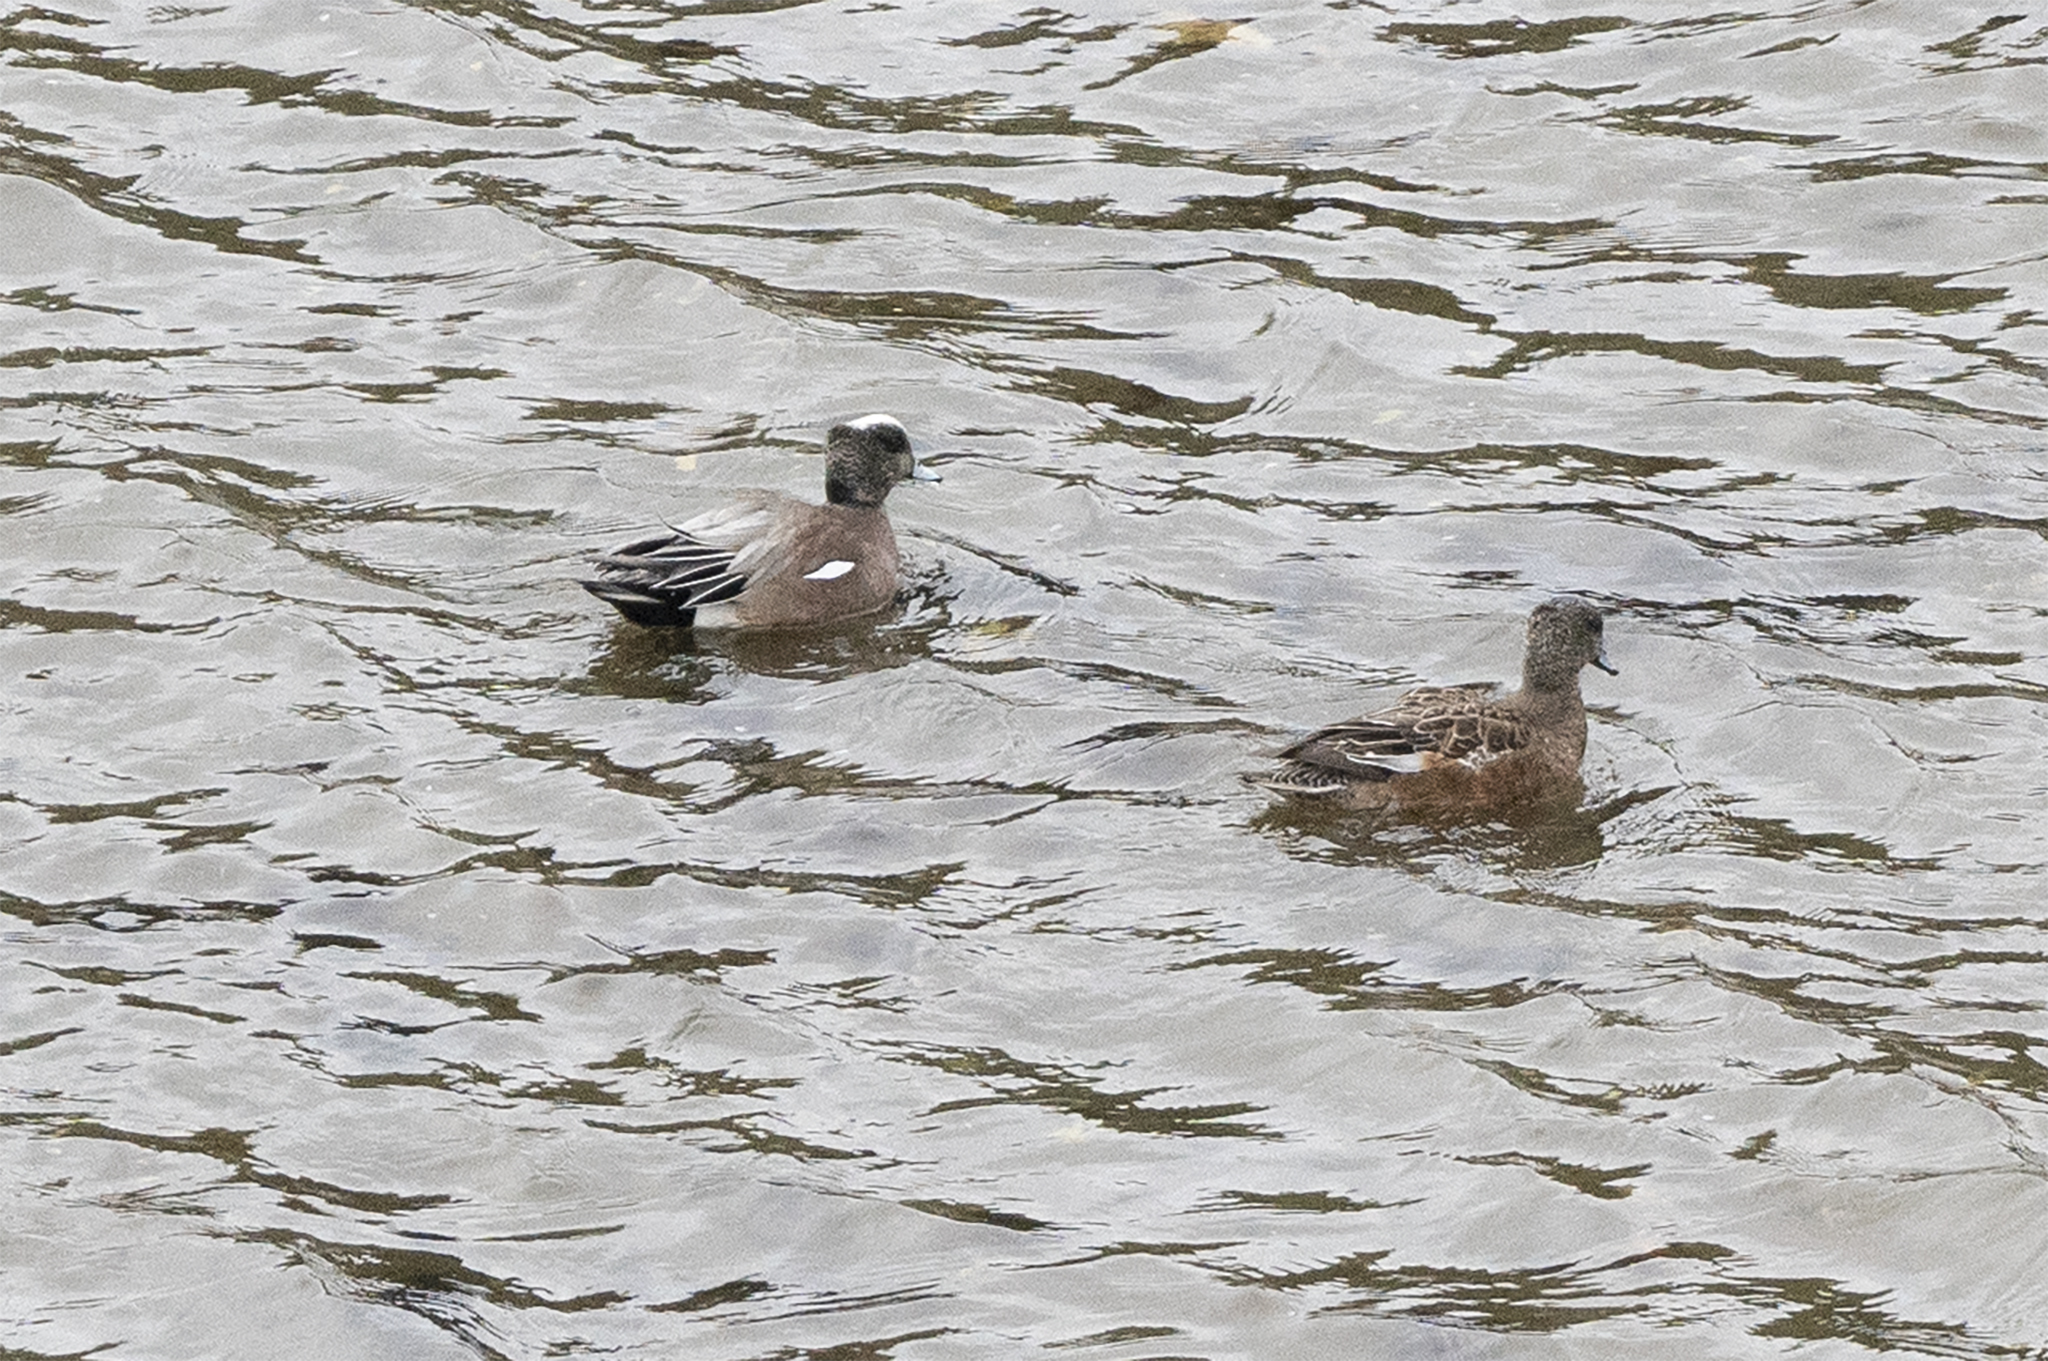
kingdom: Animalia
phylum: Chordata
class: Aves
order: Anseriformes
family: Anatidae
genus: Mareca
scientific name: Mareca americana
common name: American wigeon
